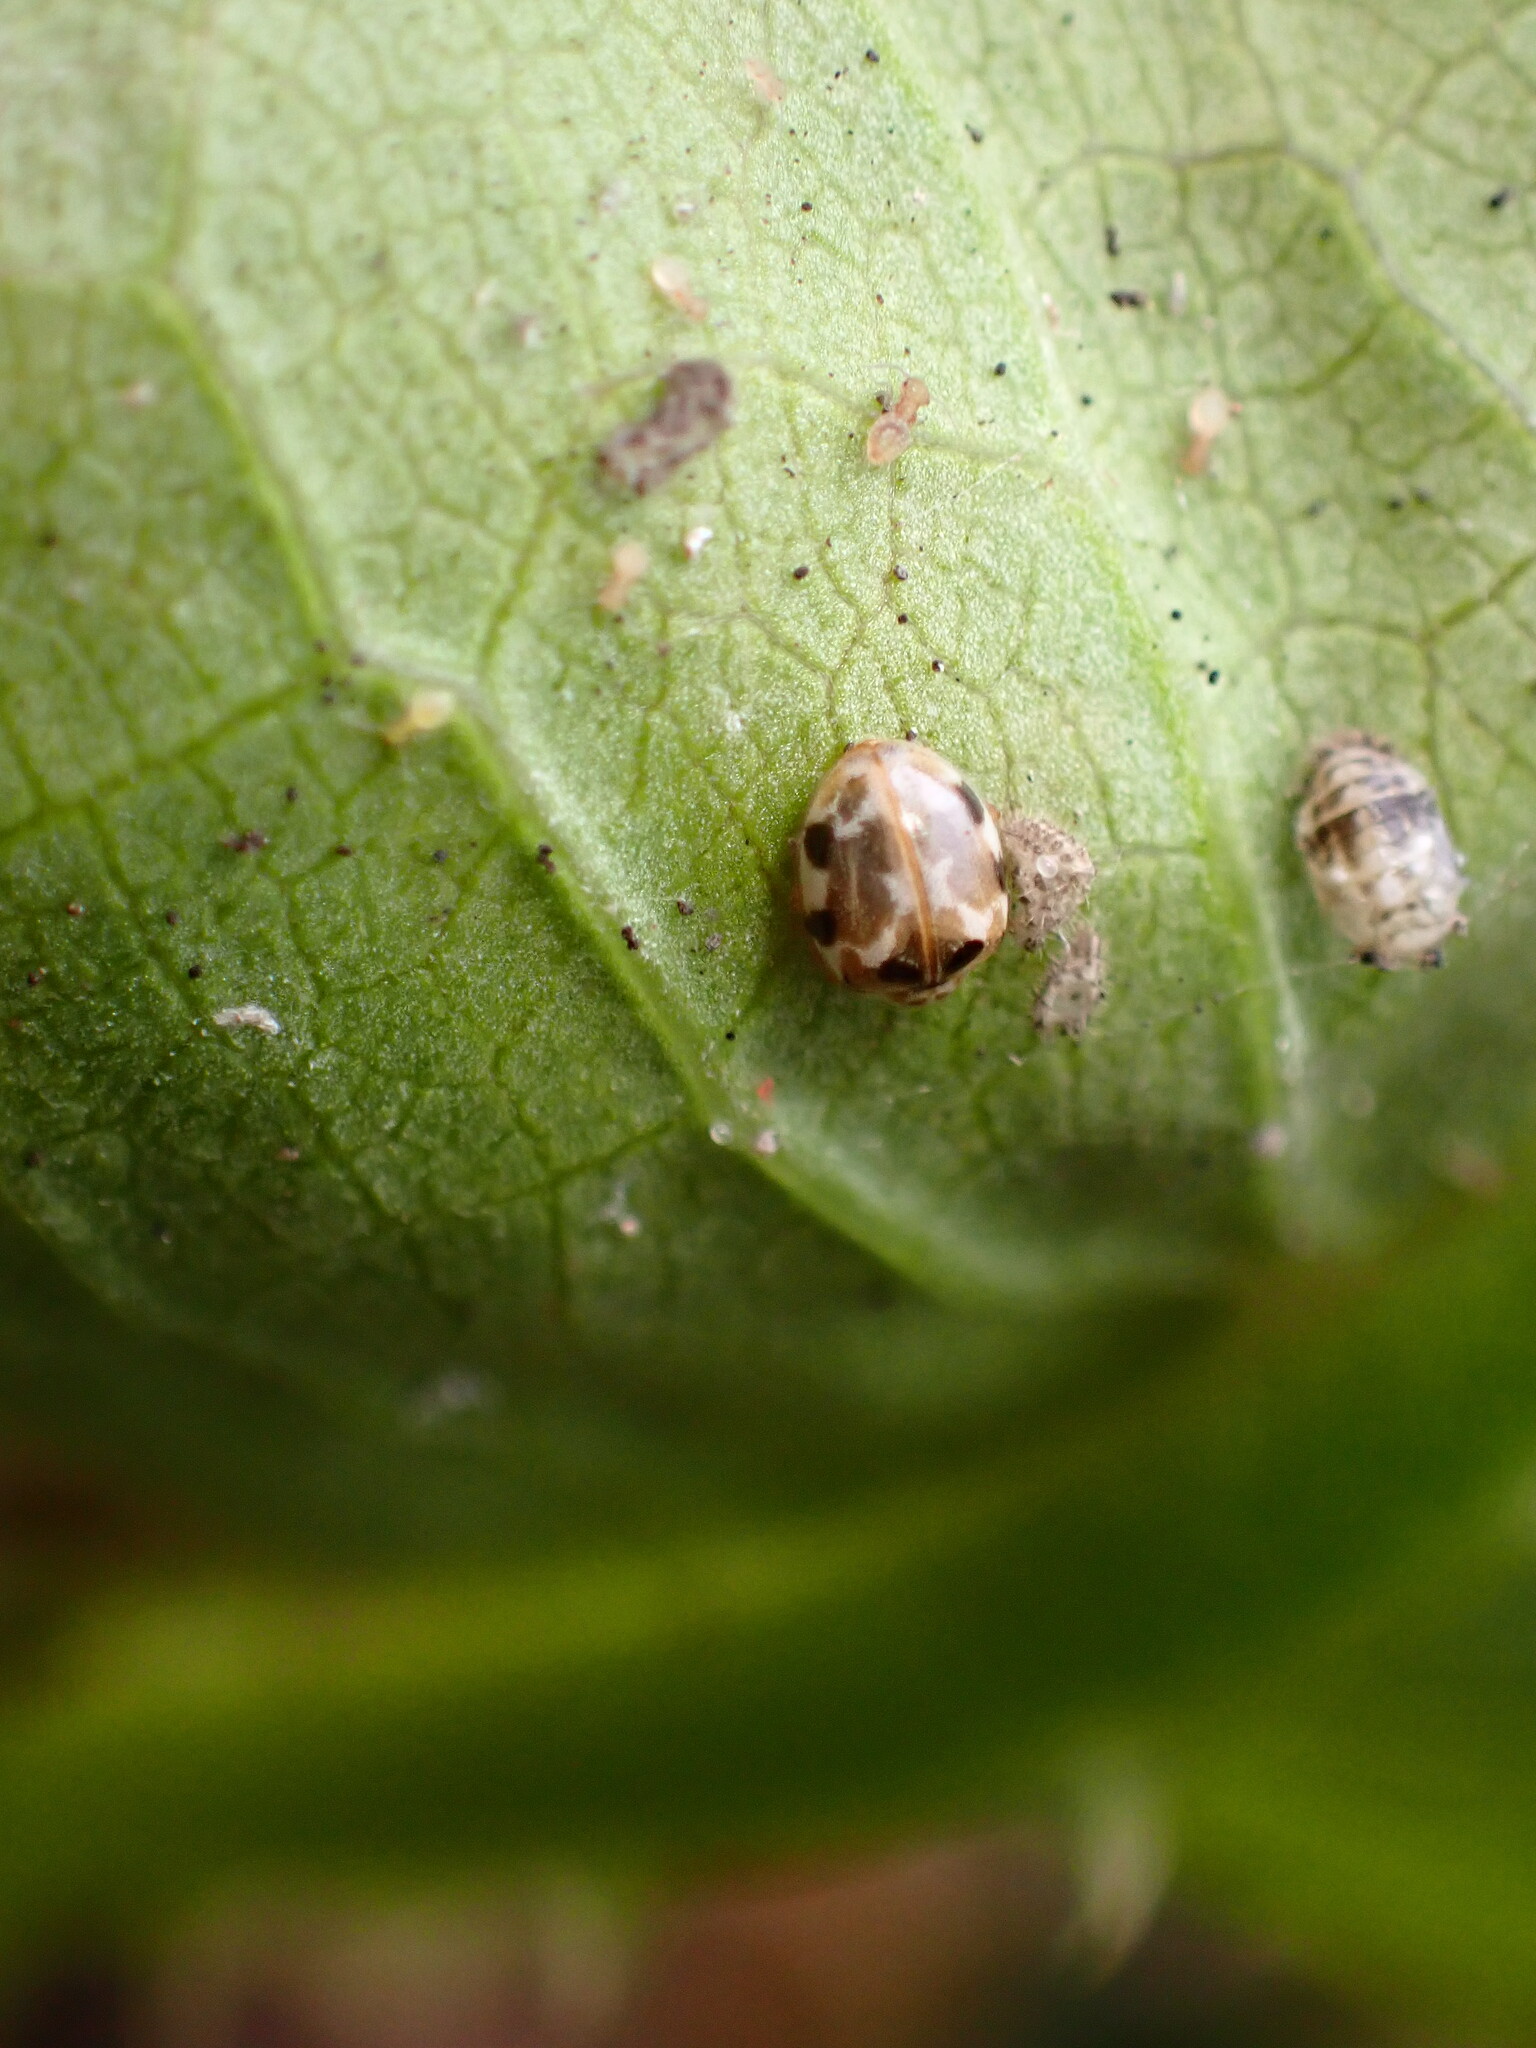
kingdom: Animalia
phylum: Arthropoda
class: Insecta
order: Coleoptera
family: Coccinellidae
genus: Psyllobora
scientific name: Psyllobora vigintimaculata
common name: Ladybird beetle
